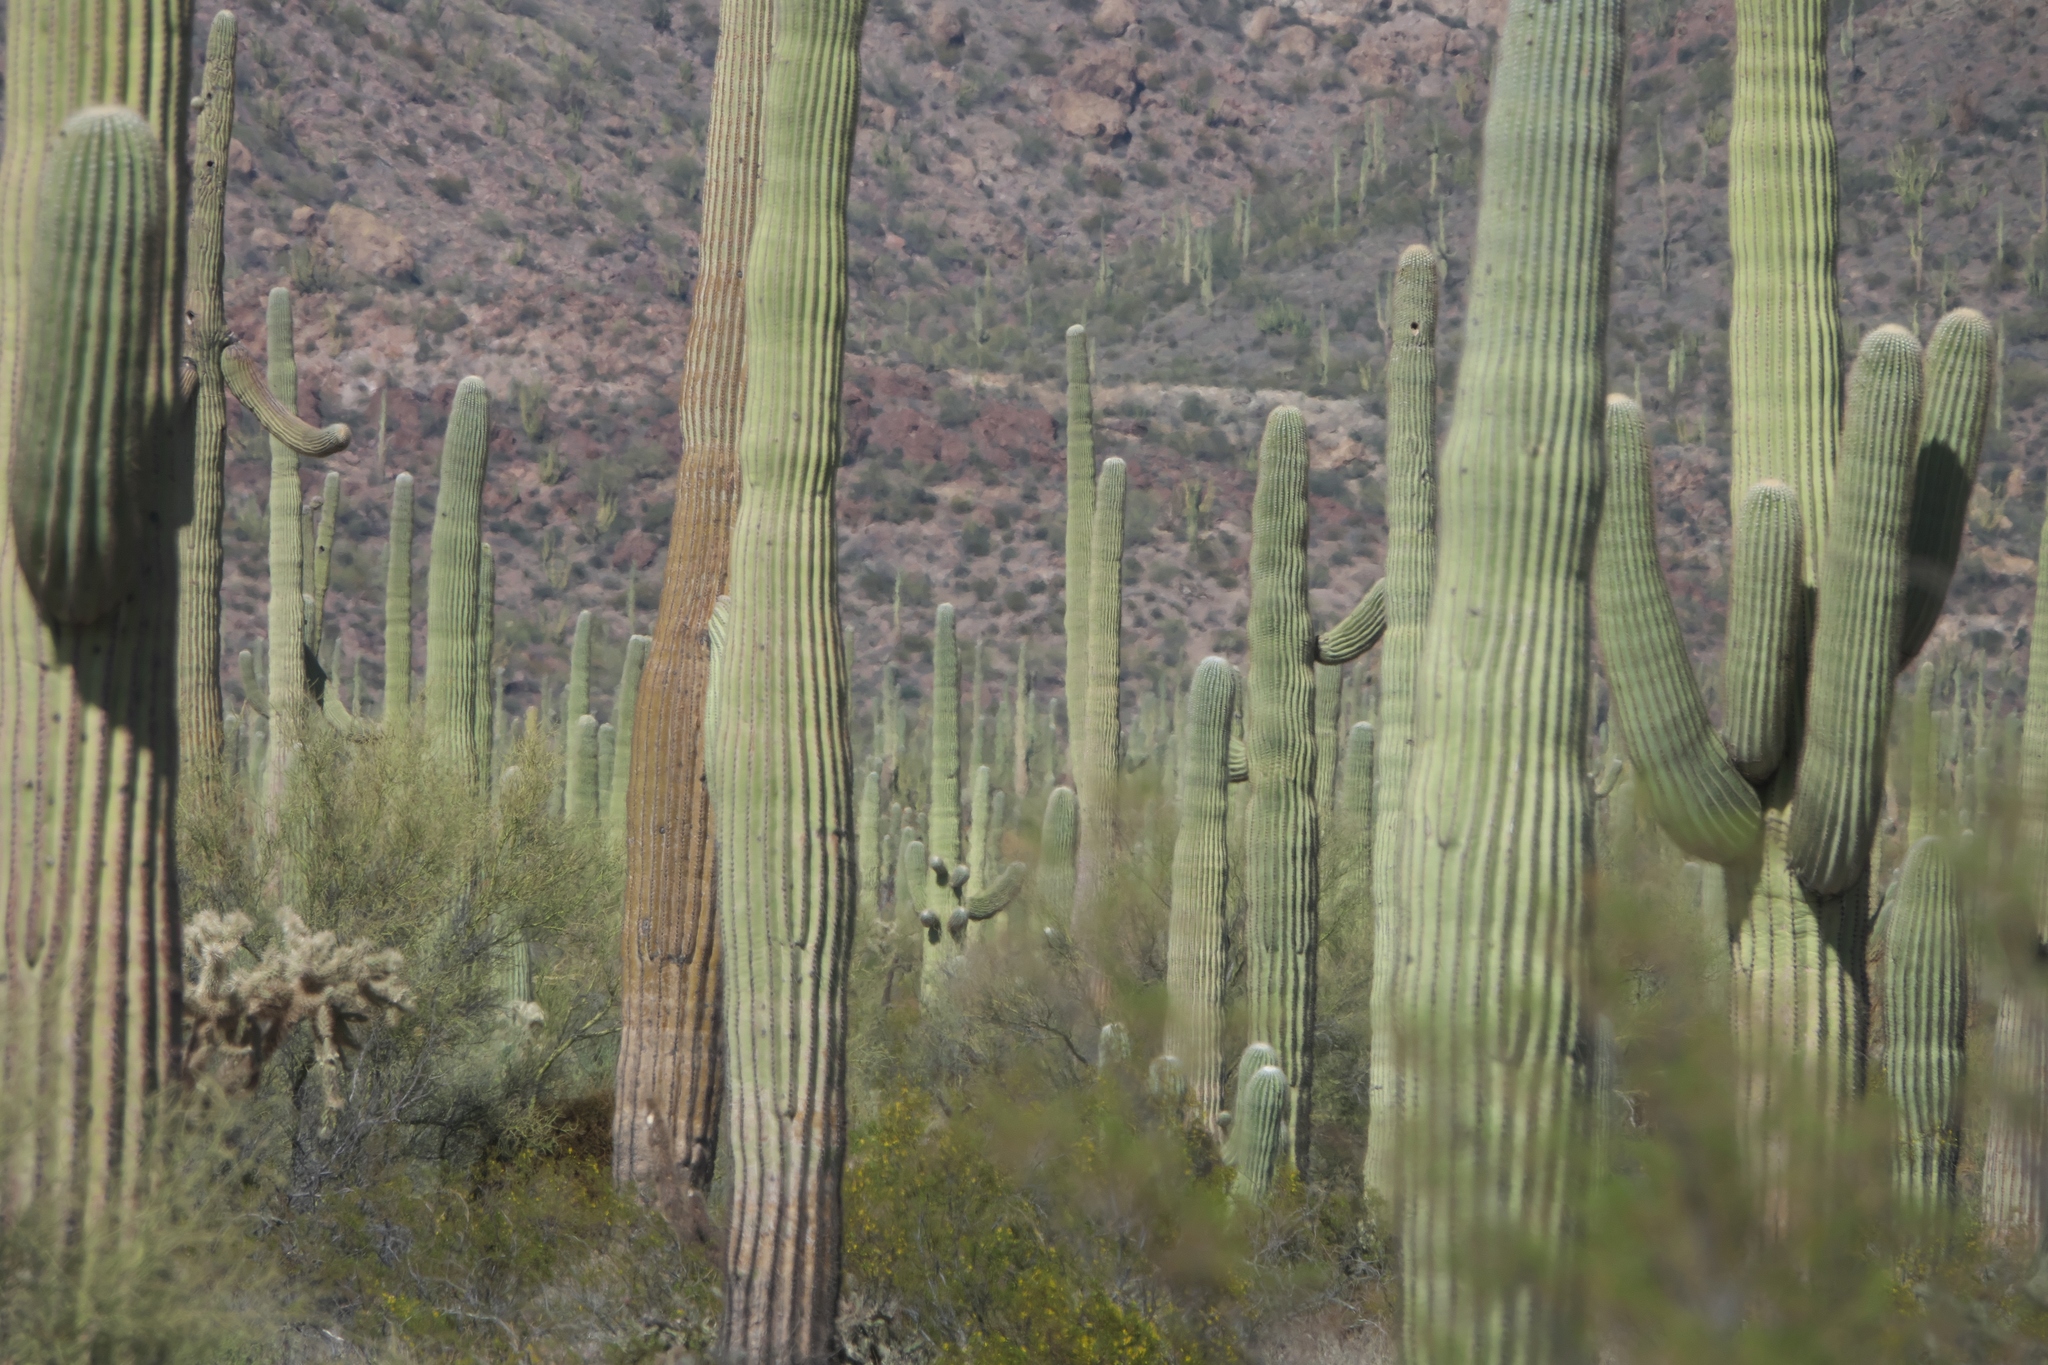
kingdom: Plantae
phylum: Tracheophyta
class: Magnoliopsida
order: Caryophyllales
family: Cactaceae
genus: Carnegiea
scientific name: Carnegiea gigantea
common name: Saguaro
